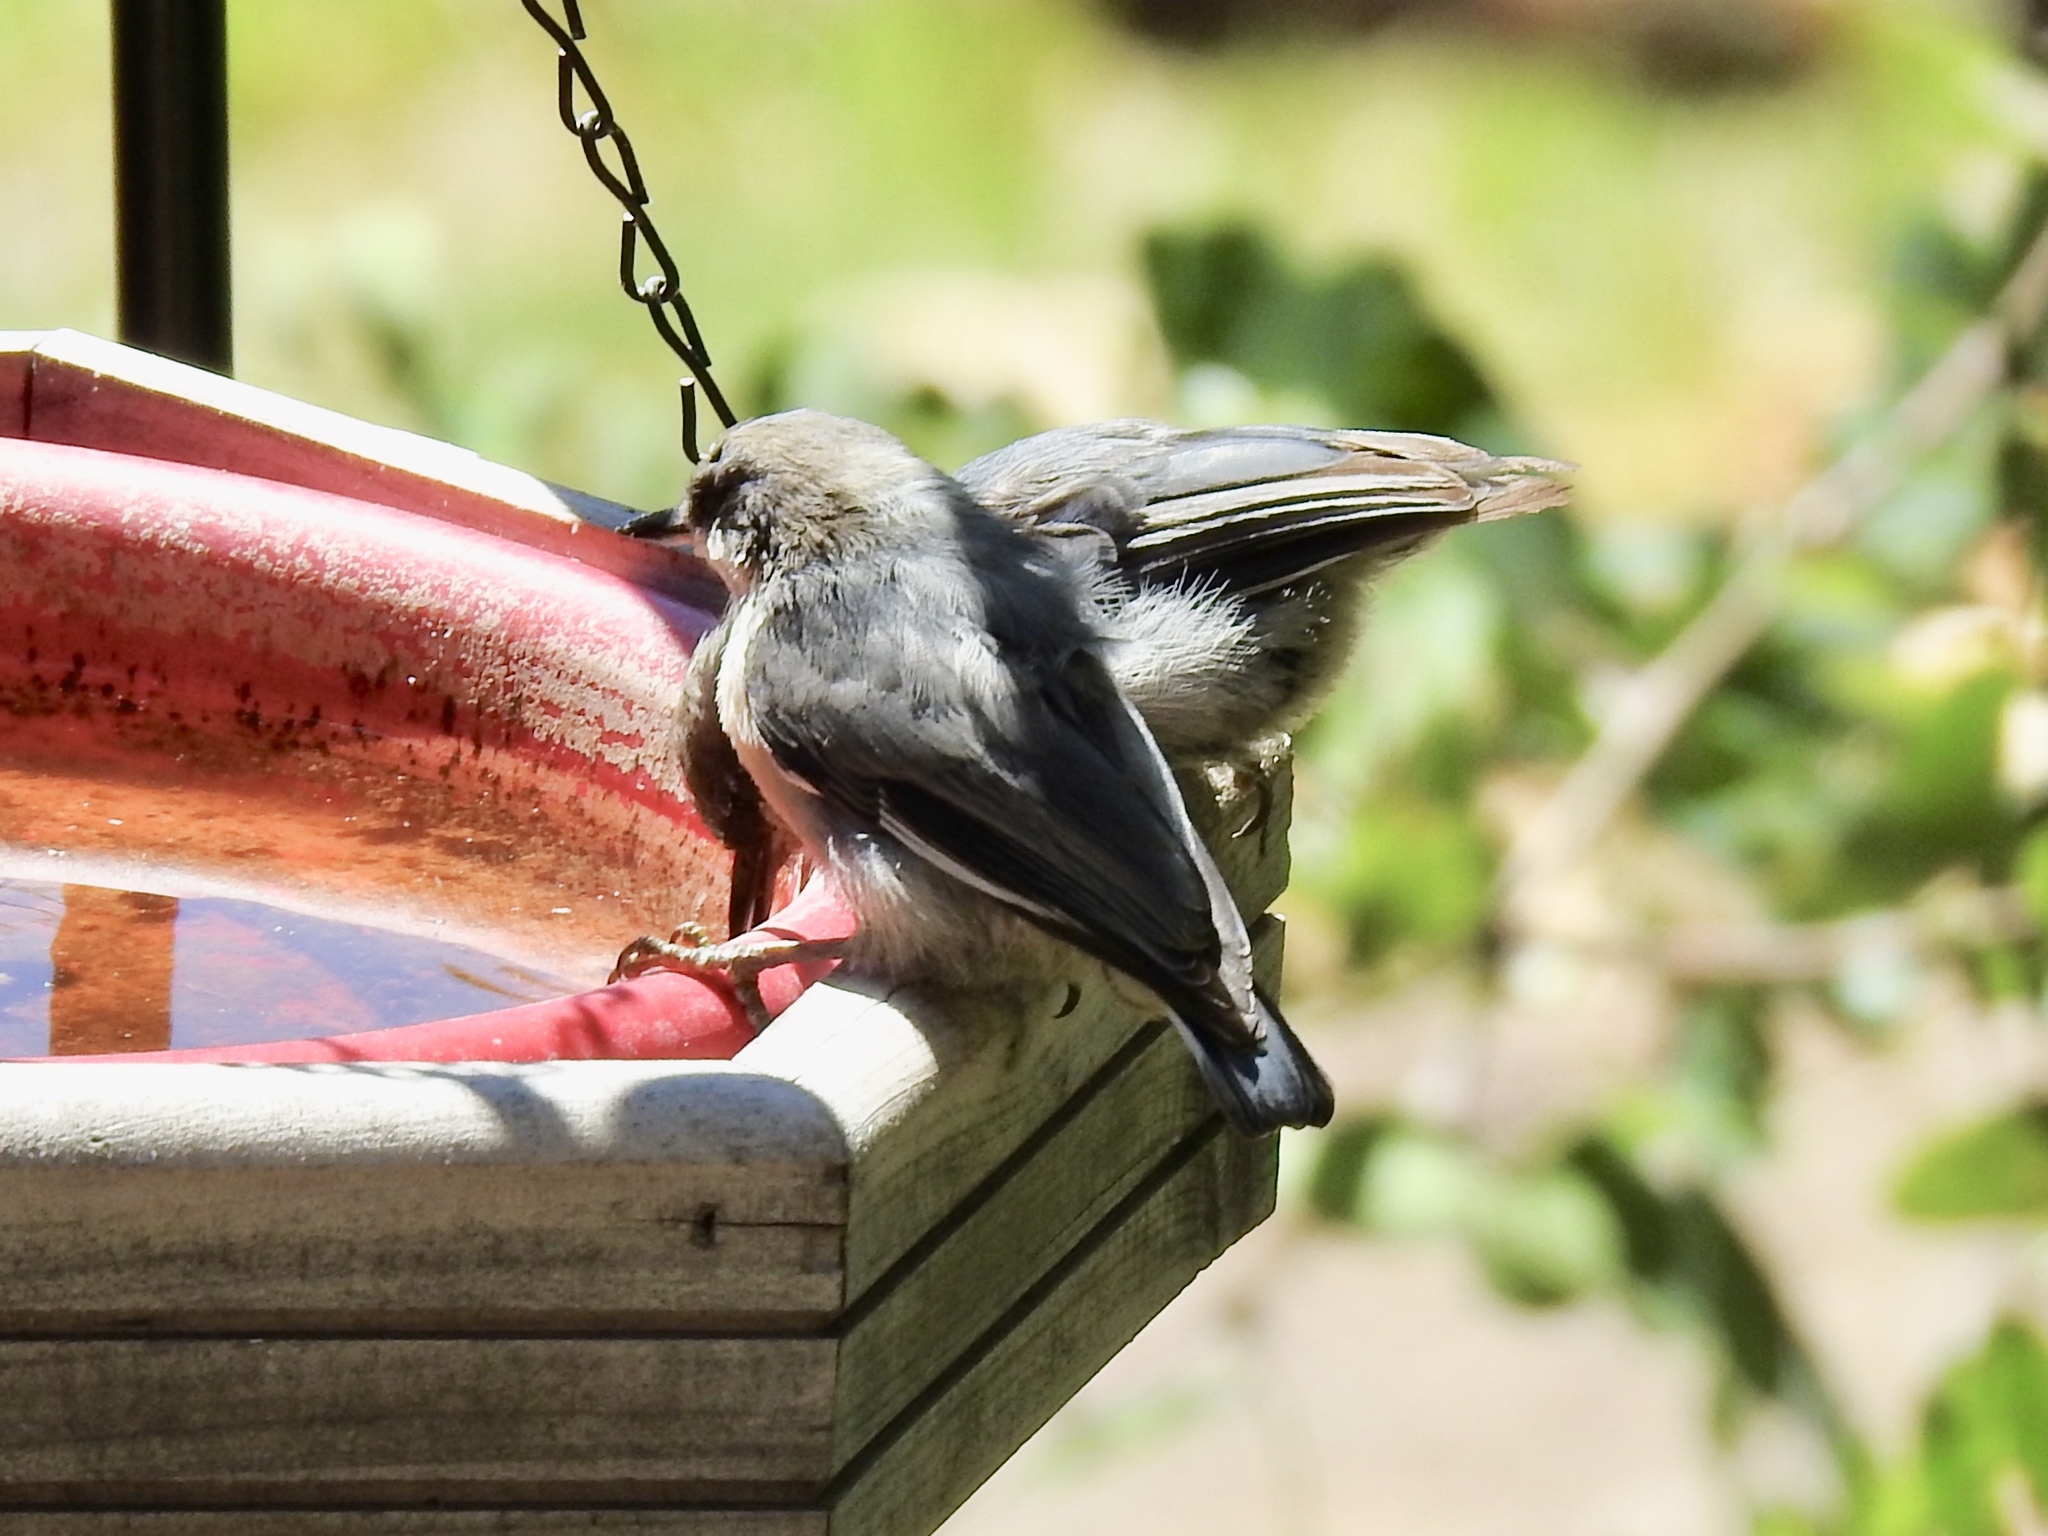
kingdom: Animalia
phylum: Chordata
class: Aves
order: Passeriformes
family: Sittidae
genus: Sitta
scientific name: Sitta pygmaea
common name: Pygmy nuthatch
